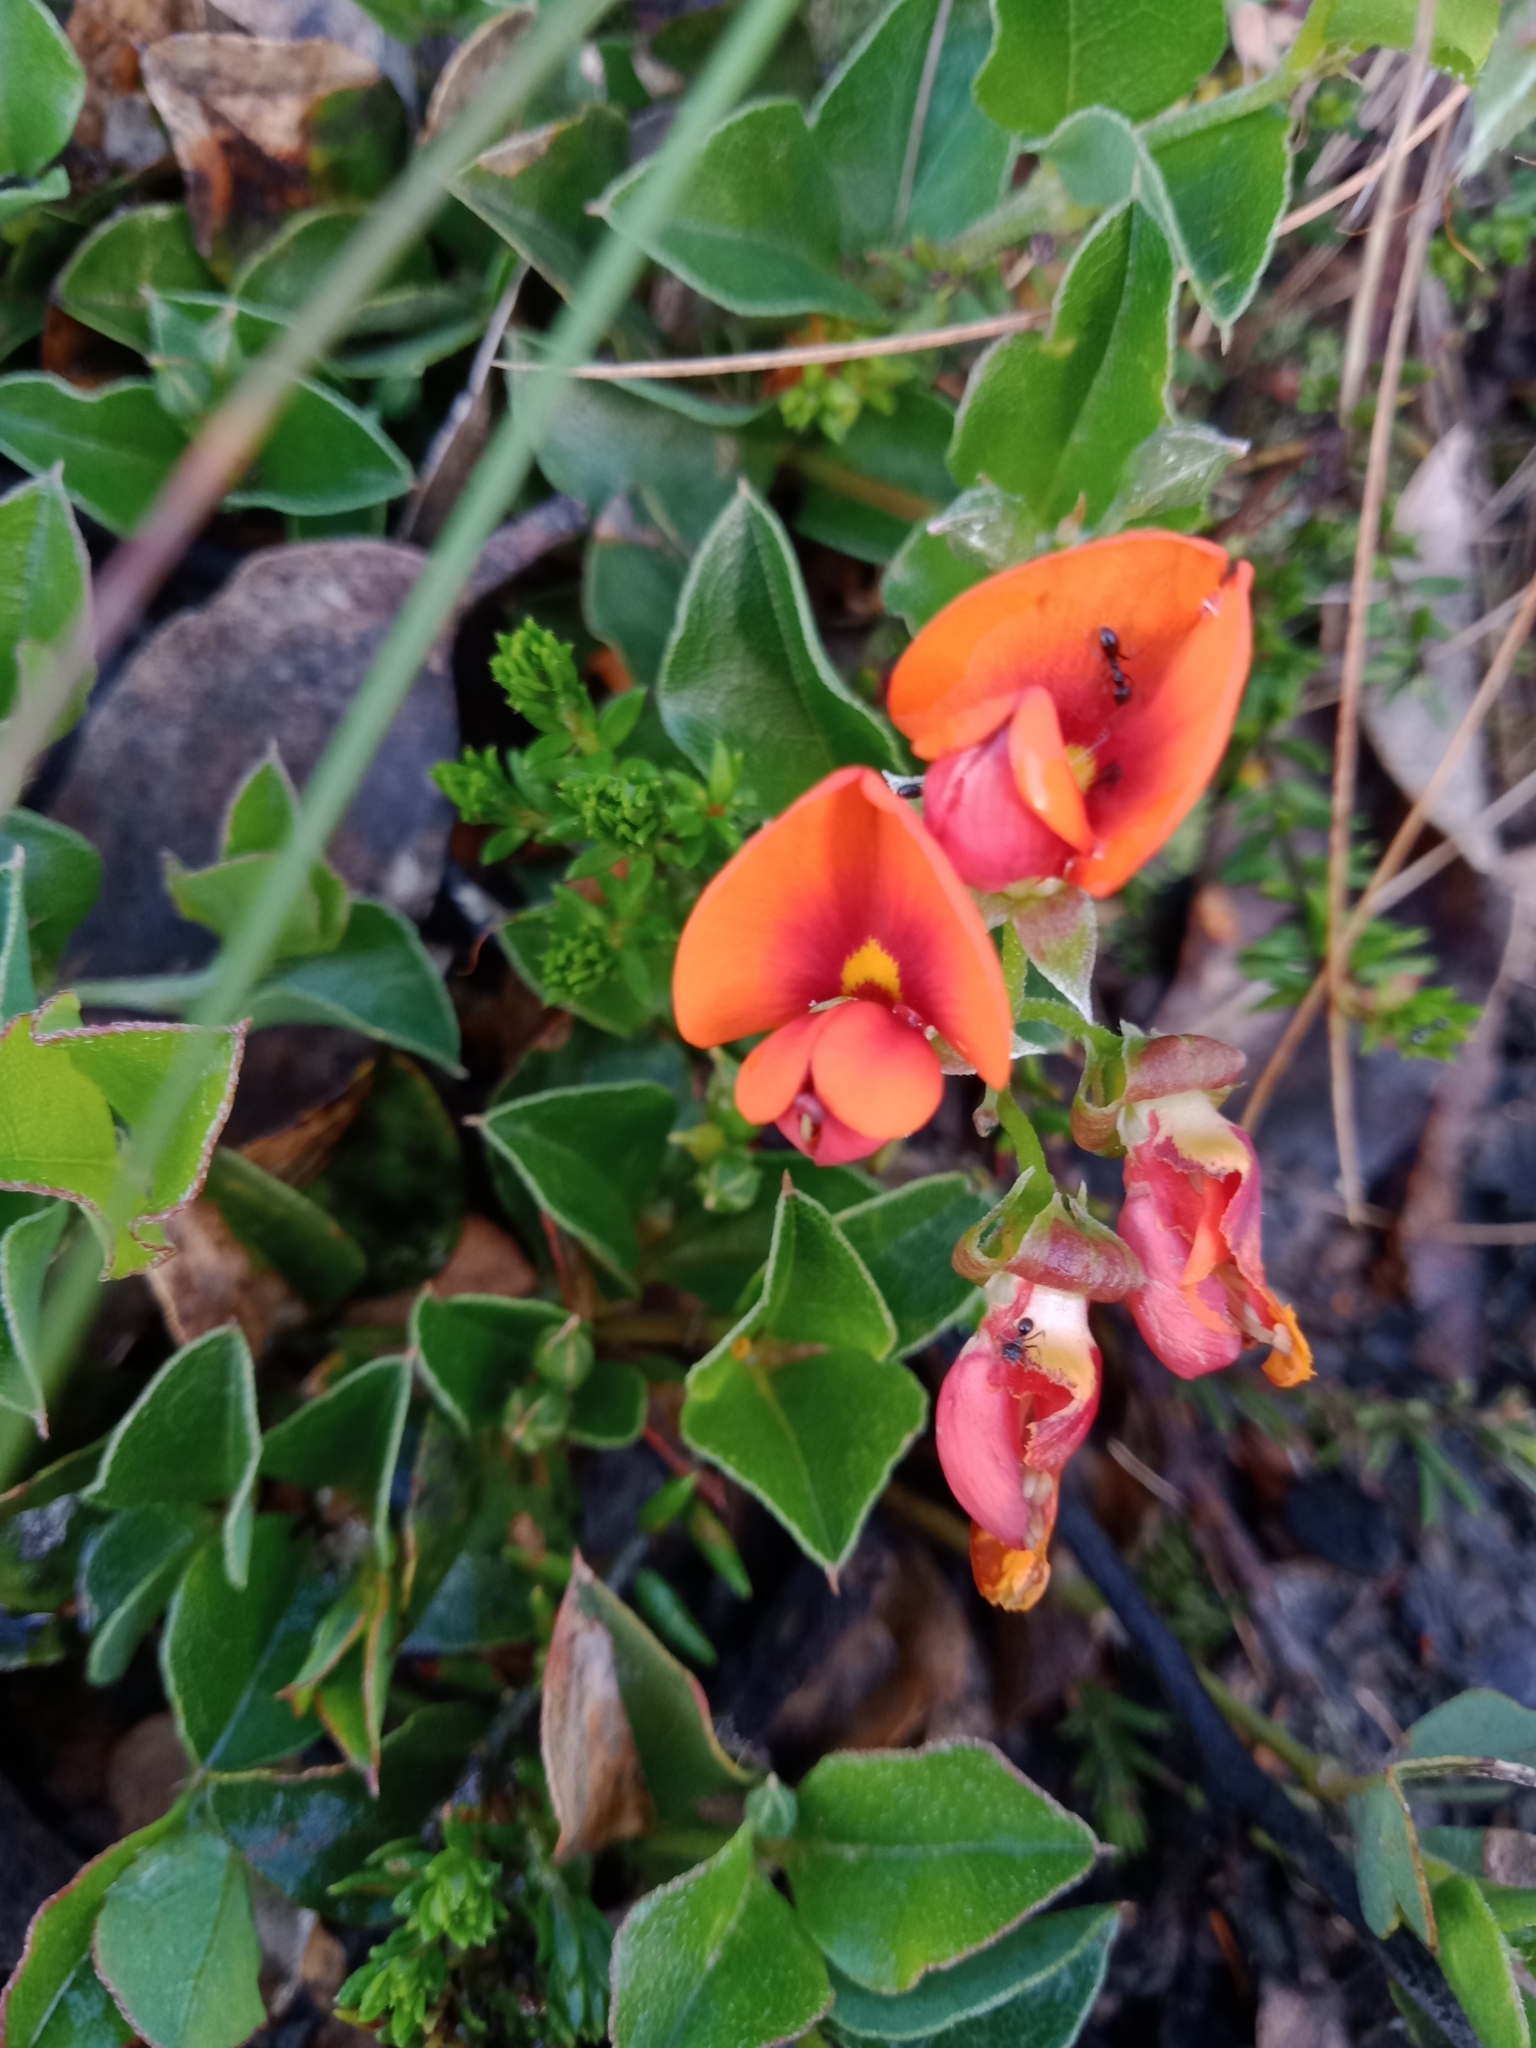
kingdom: Plantae
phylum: Tracheophyta
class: Magnoliopsida
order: Fabales
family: Fabaceae
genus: Podolobium
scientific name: Podolobium procumbens
